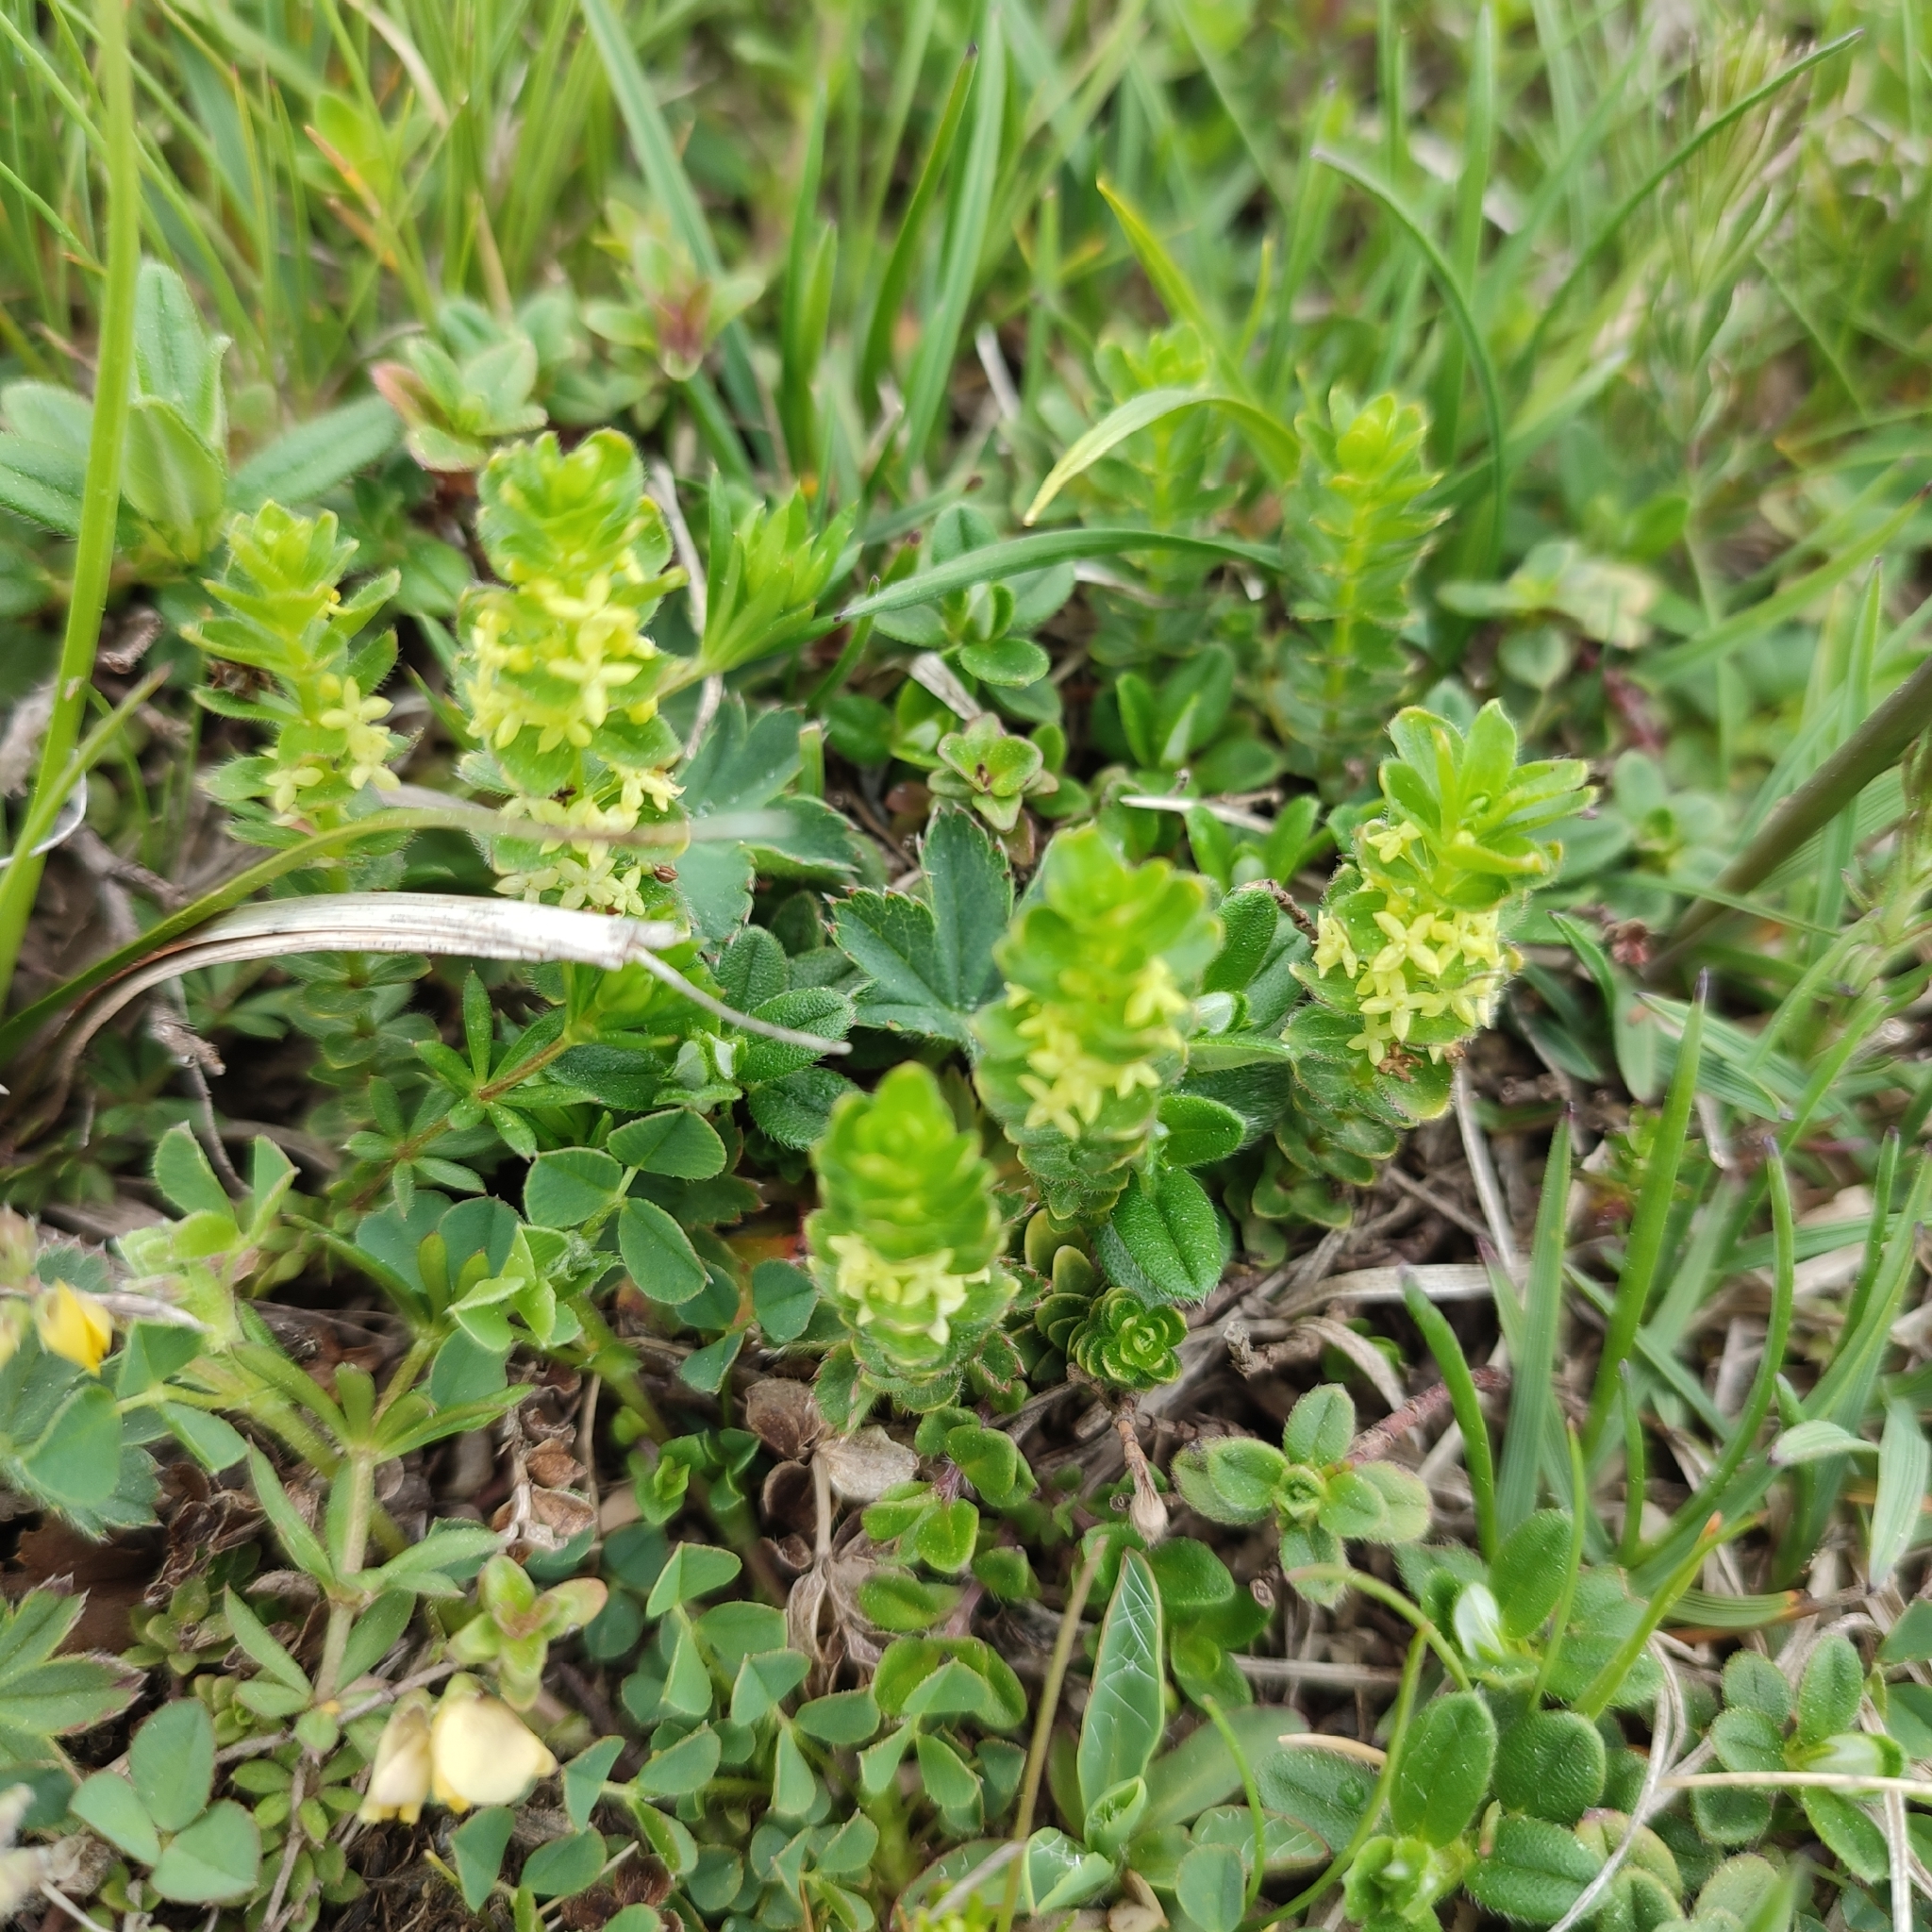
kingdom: Plantae
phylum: Tracheophyta
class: Magnoliopsida
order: Gentianales
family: Rubiaceae
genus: Cruciata
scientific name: Cruciata glabra
